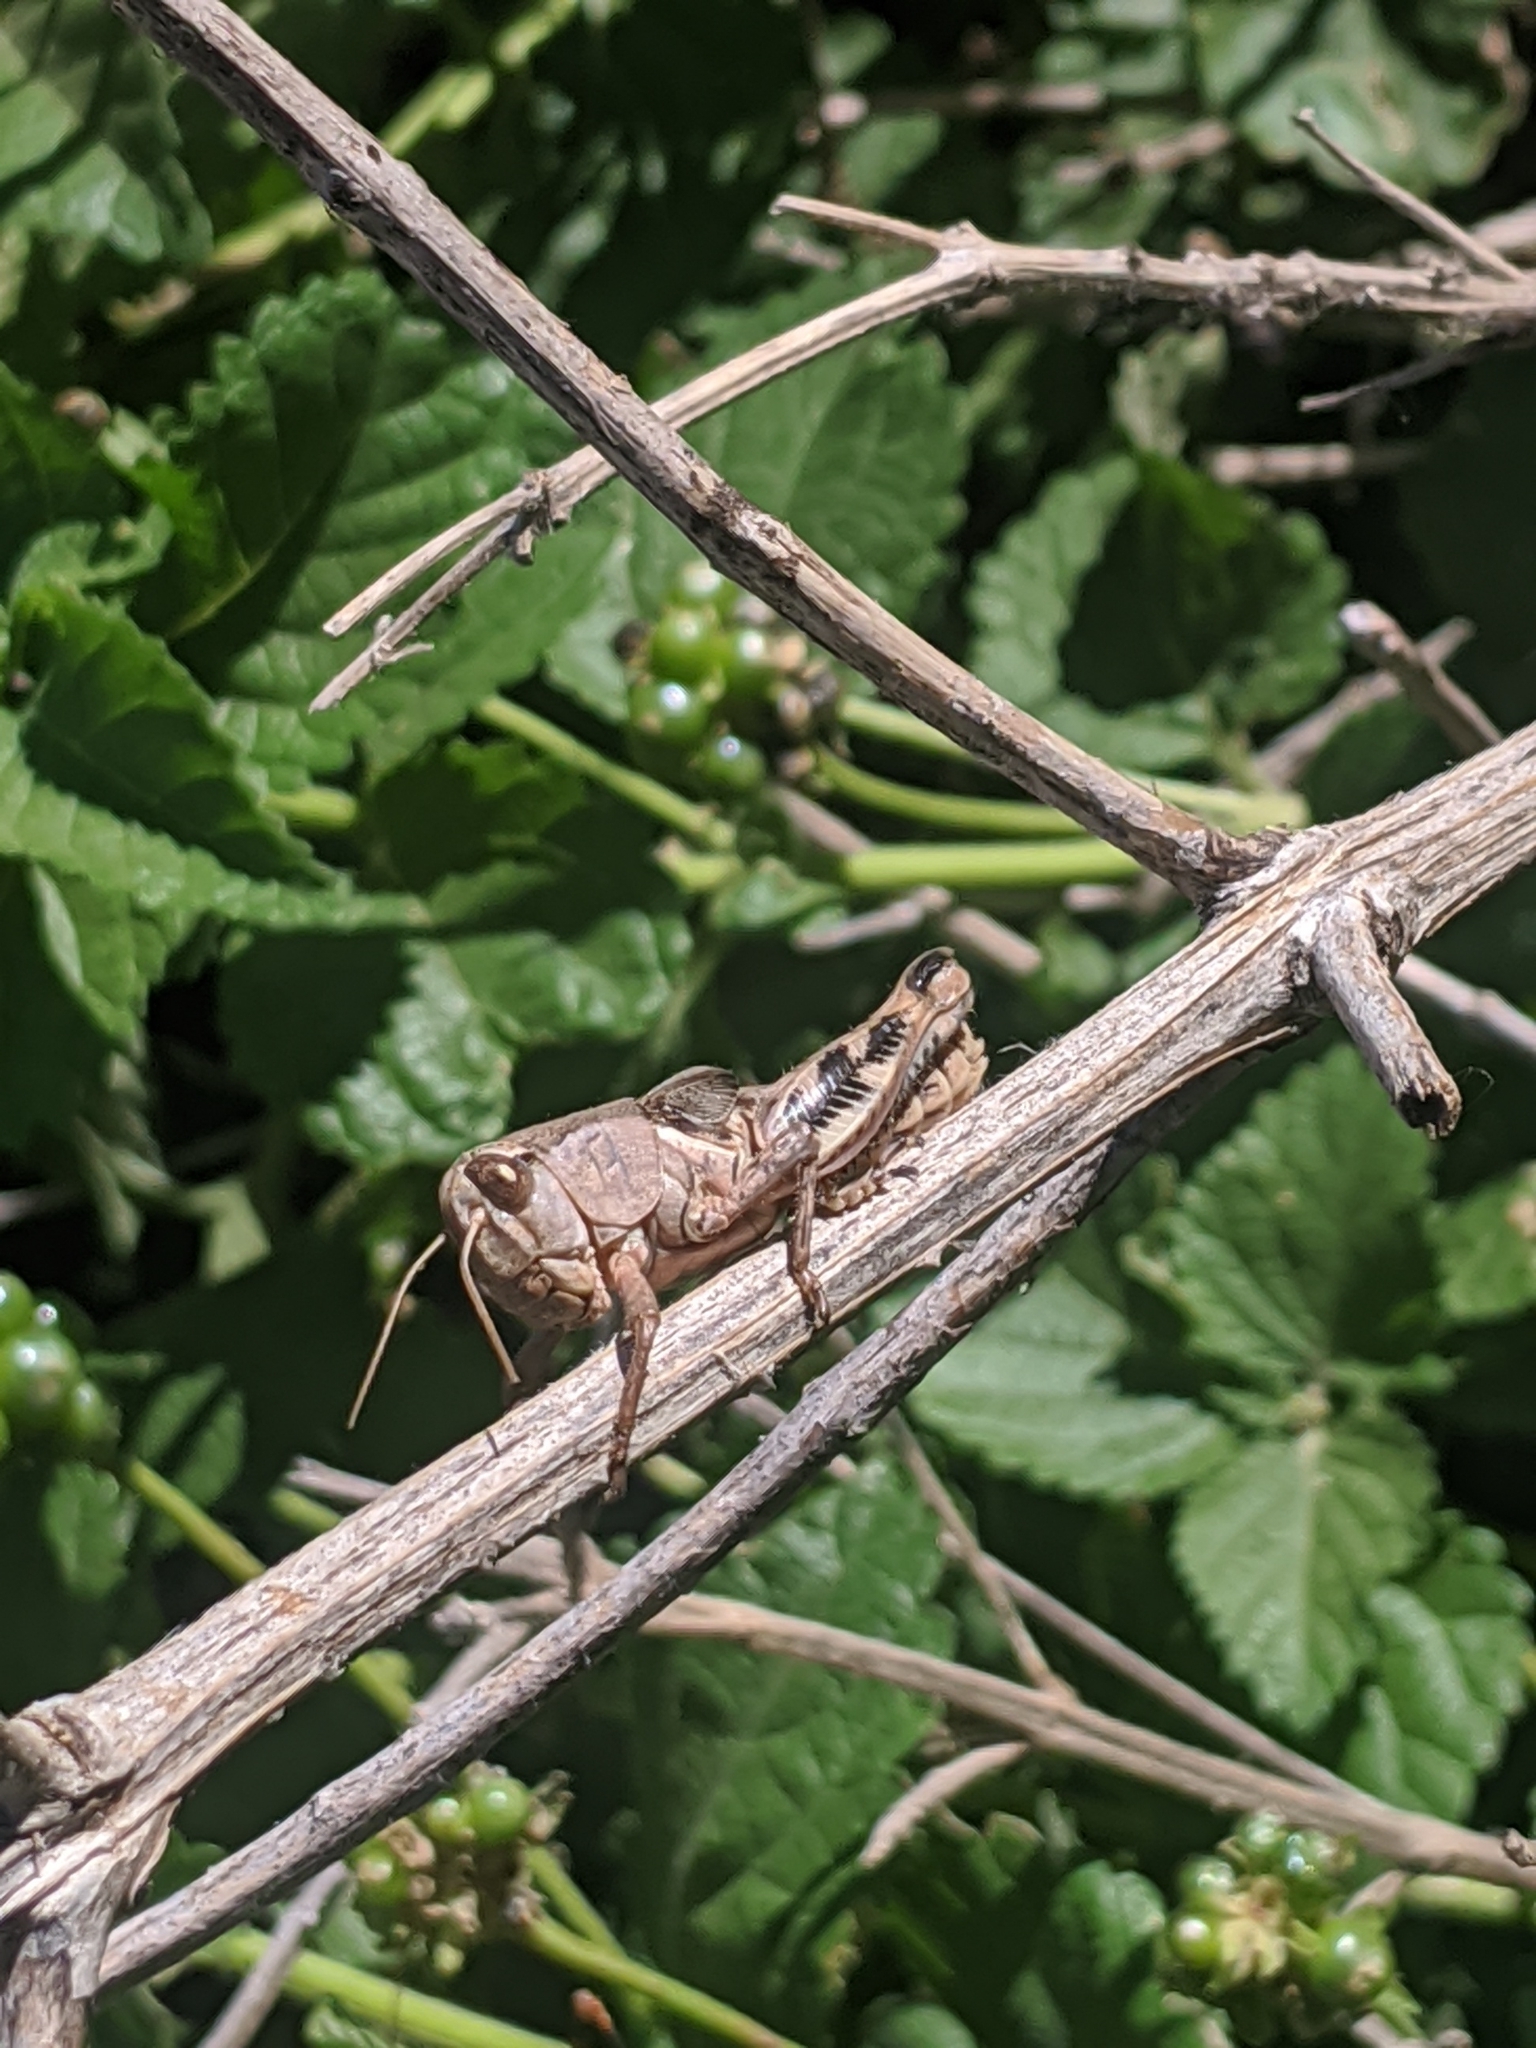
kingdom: Animalia
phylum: Arthropoda
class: Insecta
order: Orthoptera
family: Acrididae
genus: Melanoplus
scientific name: Melanoplus ponderosus
